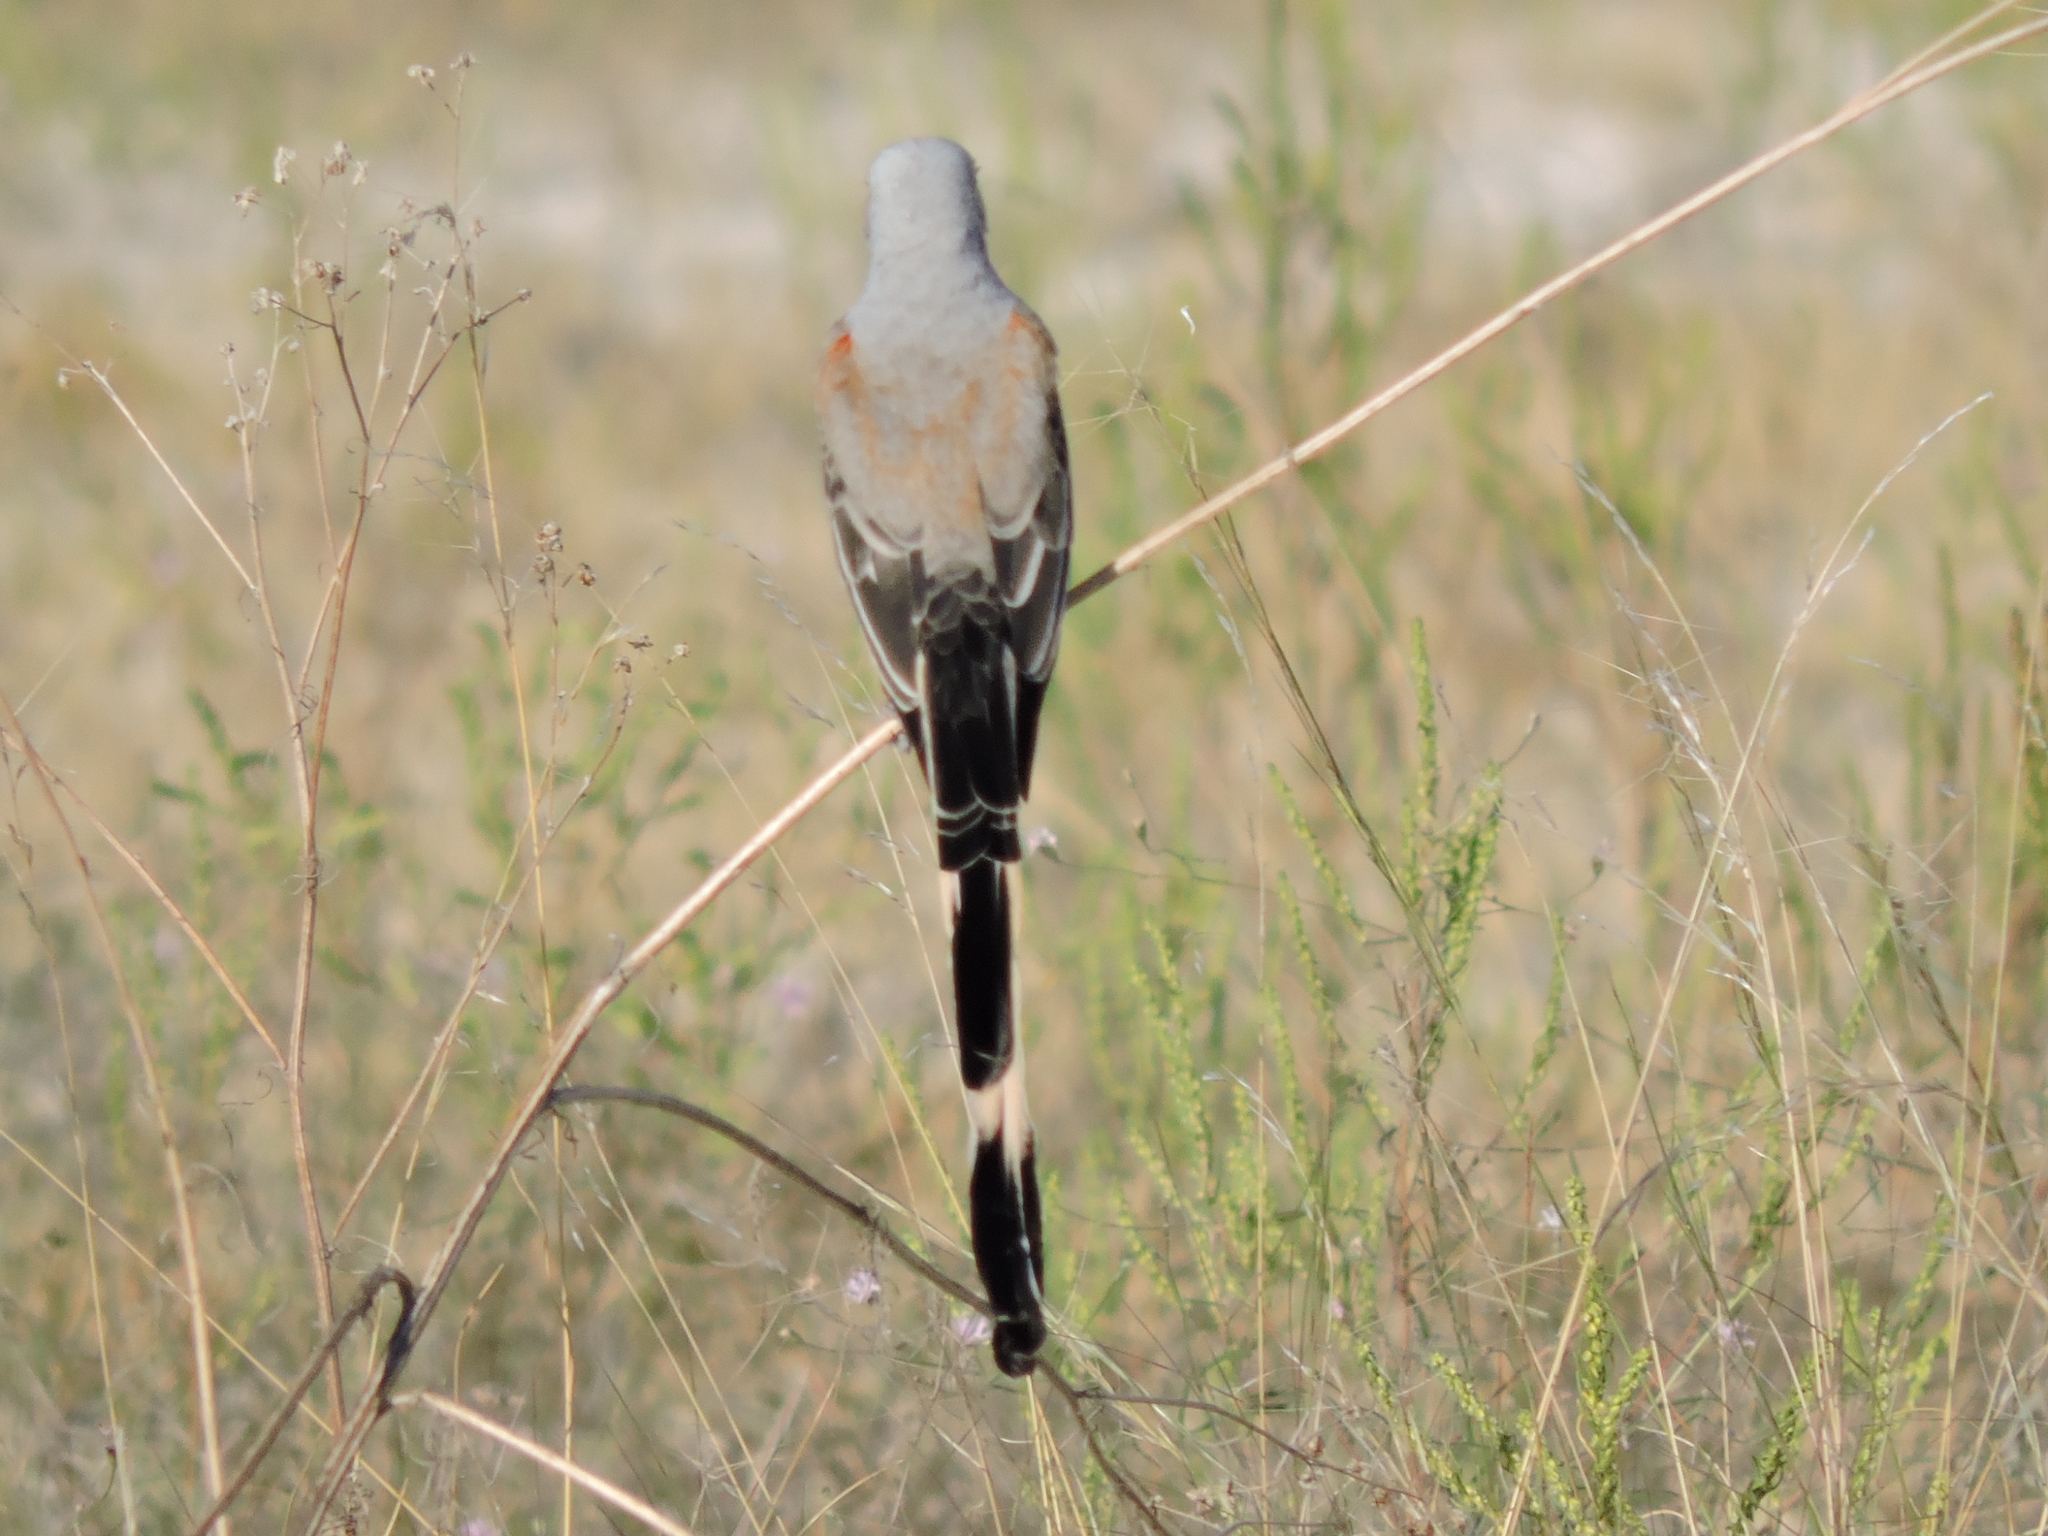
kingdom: Animalia
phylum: Chordata
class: Aves
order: Passeriformes
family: Tyrannidae
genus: Tyrannus
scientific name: Tyrannus forficatus
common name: Scissor-tailed flycatcher
